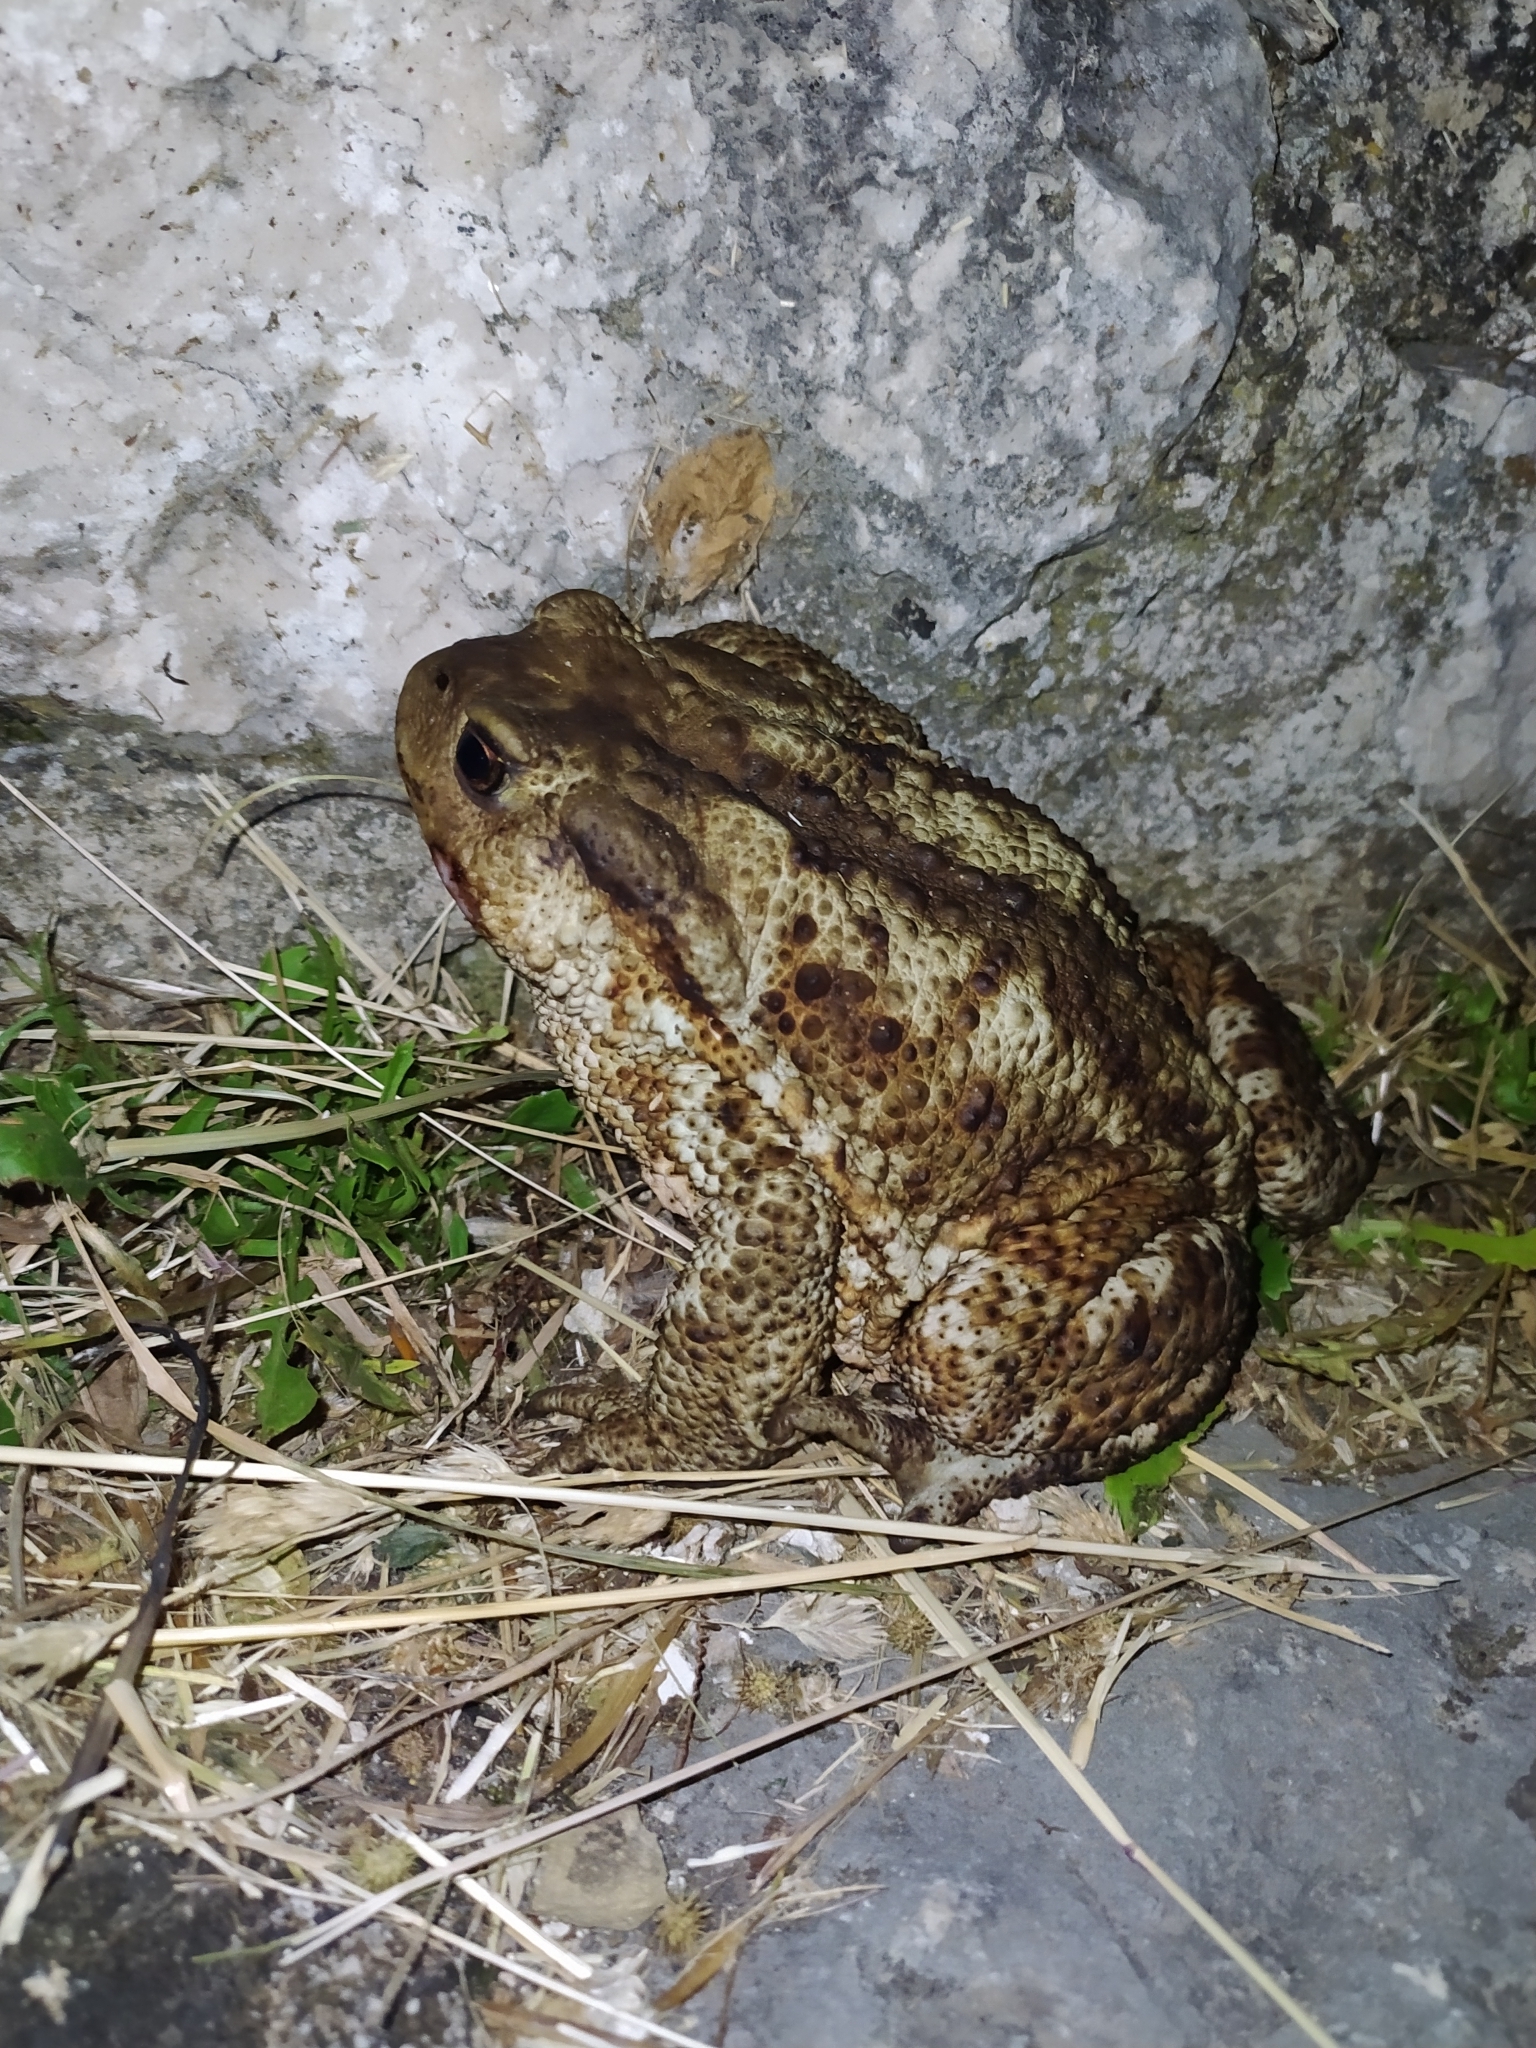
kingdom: Animalia
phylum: Chordata
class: Amphibia
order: Anura
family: Bufonidae
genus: Bufo
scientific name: Bufo bufo
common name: Common toad
